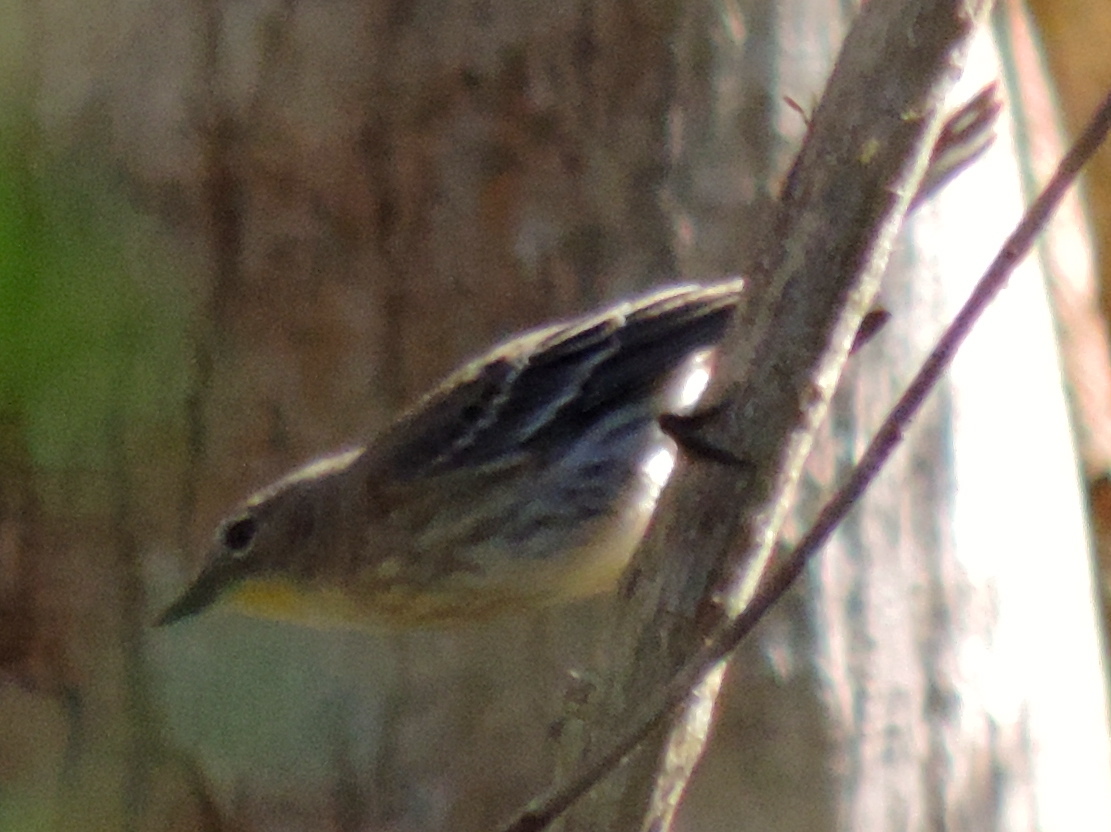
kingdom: Animalia
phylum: Chordata
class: Aves
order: Passeriformes
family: Parulidae
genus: Setophaga
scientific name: Setophaga coronata
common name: Myrtle warbler
